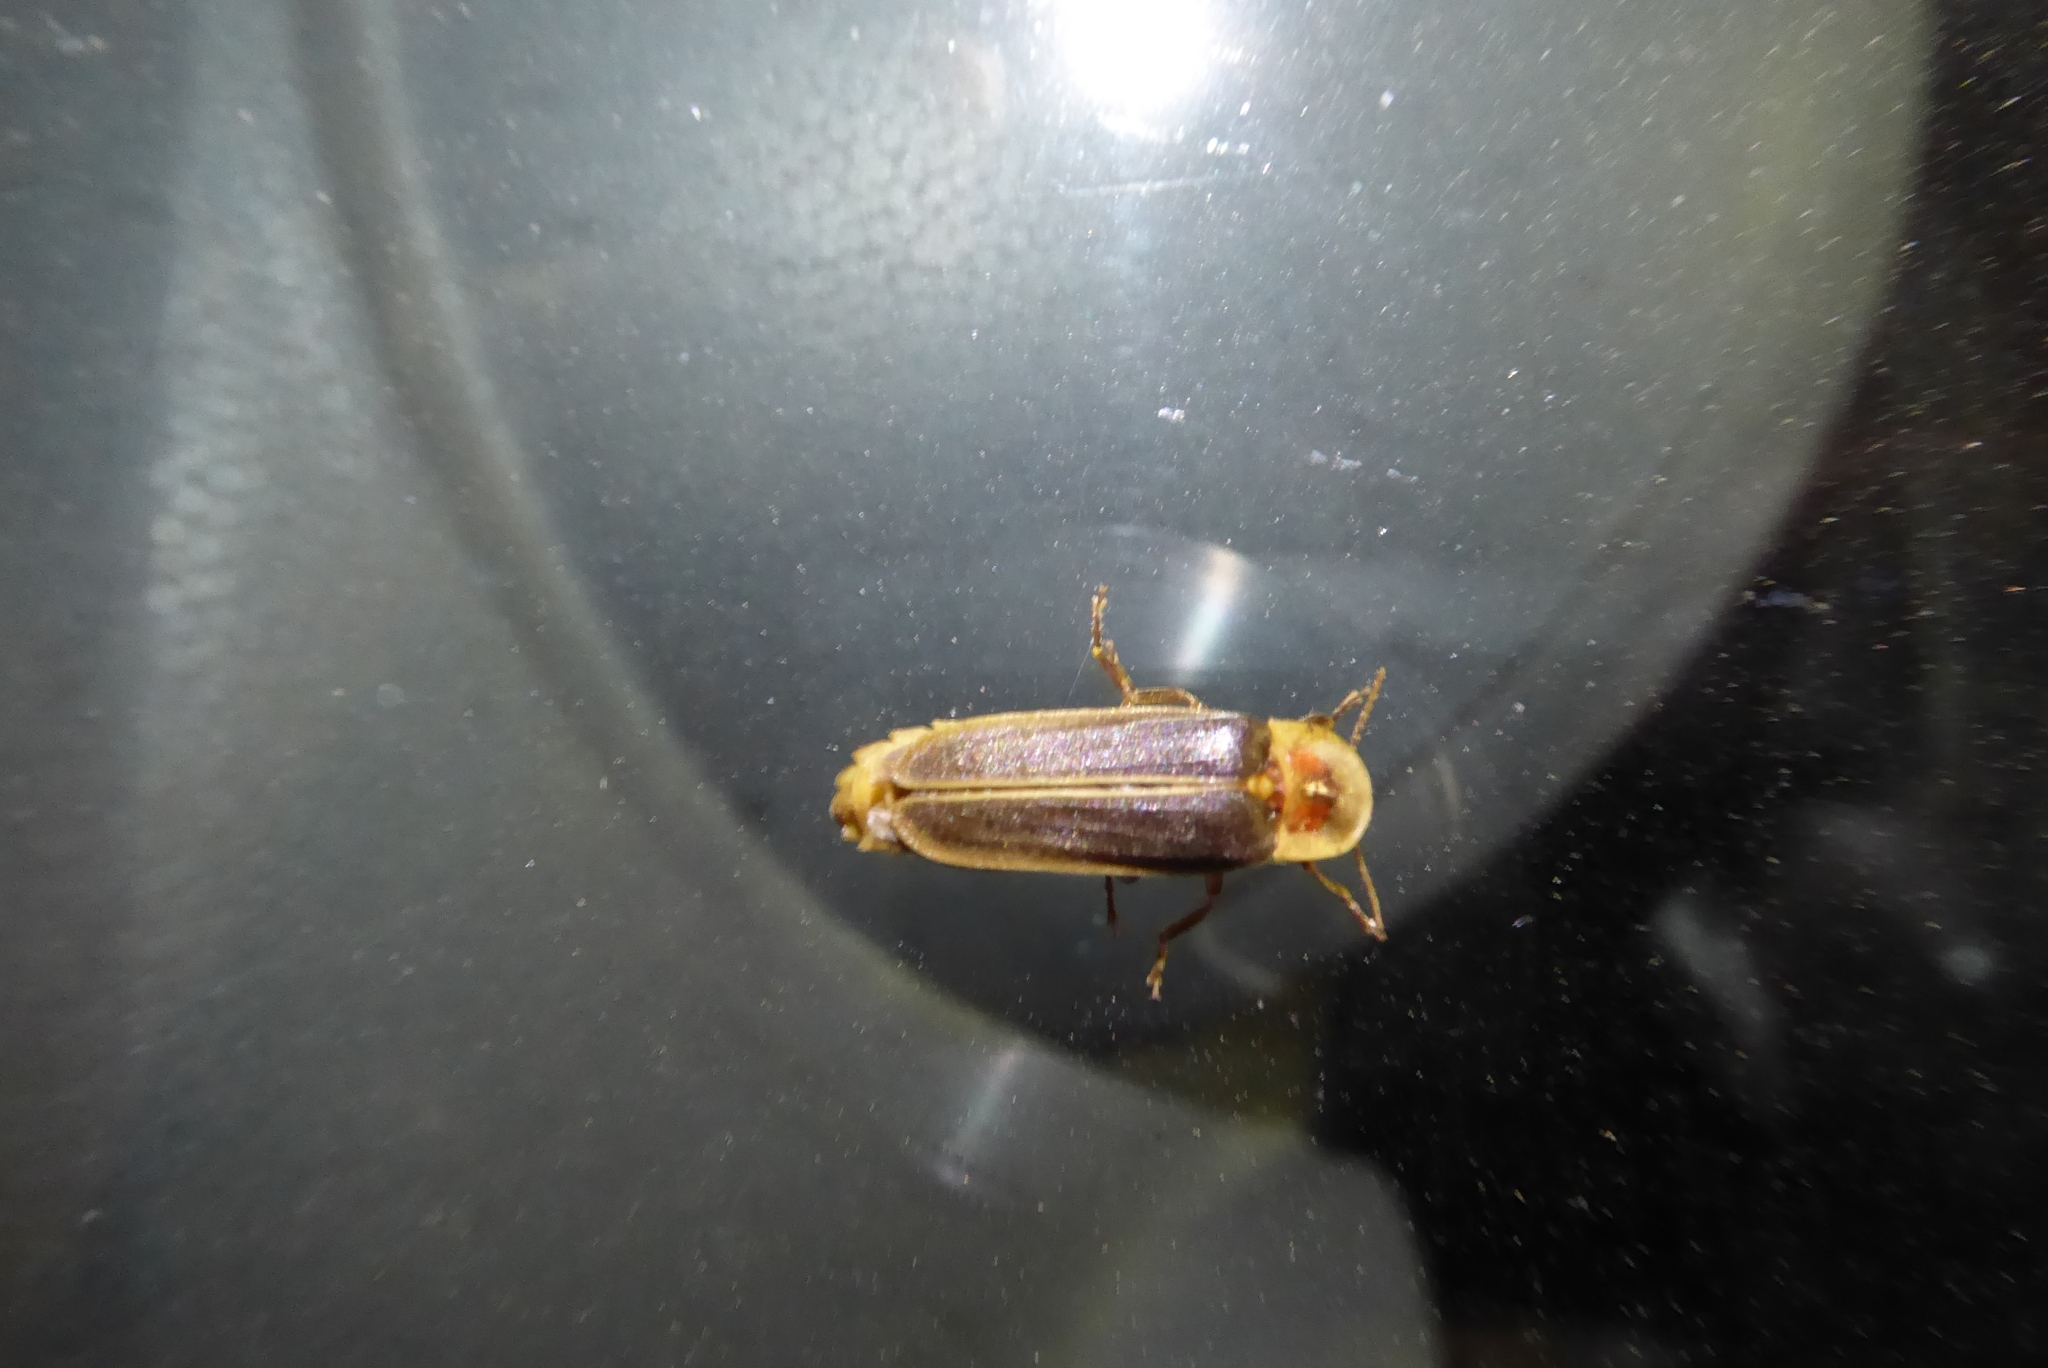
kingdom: Animalia
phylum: Arthropoda
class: Insecta
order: Coleoptera
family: Lampyridae
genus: Nyctophila
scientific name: Nyctophila reichii
